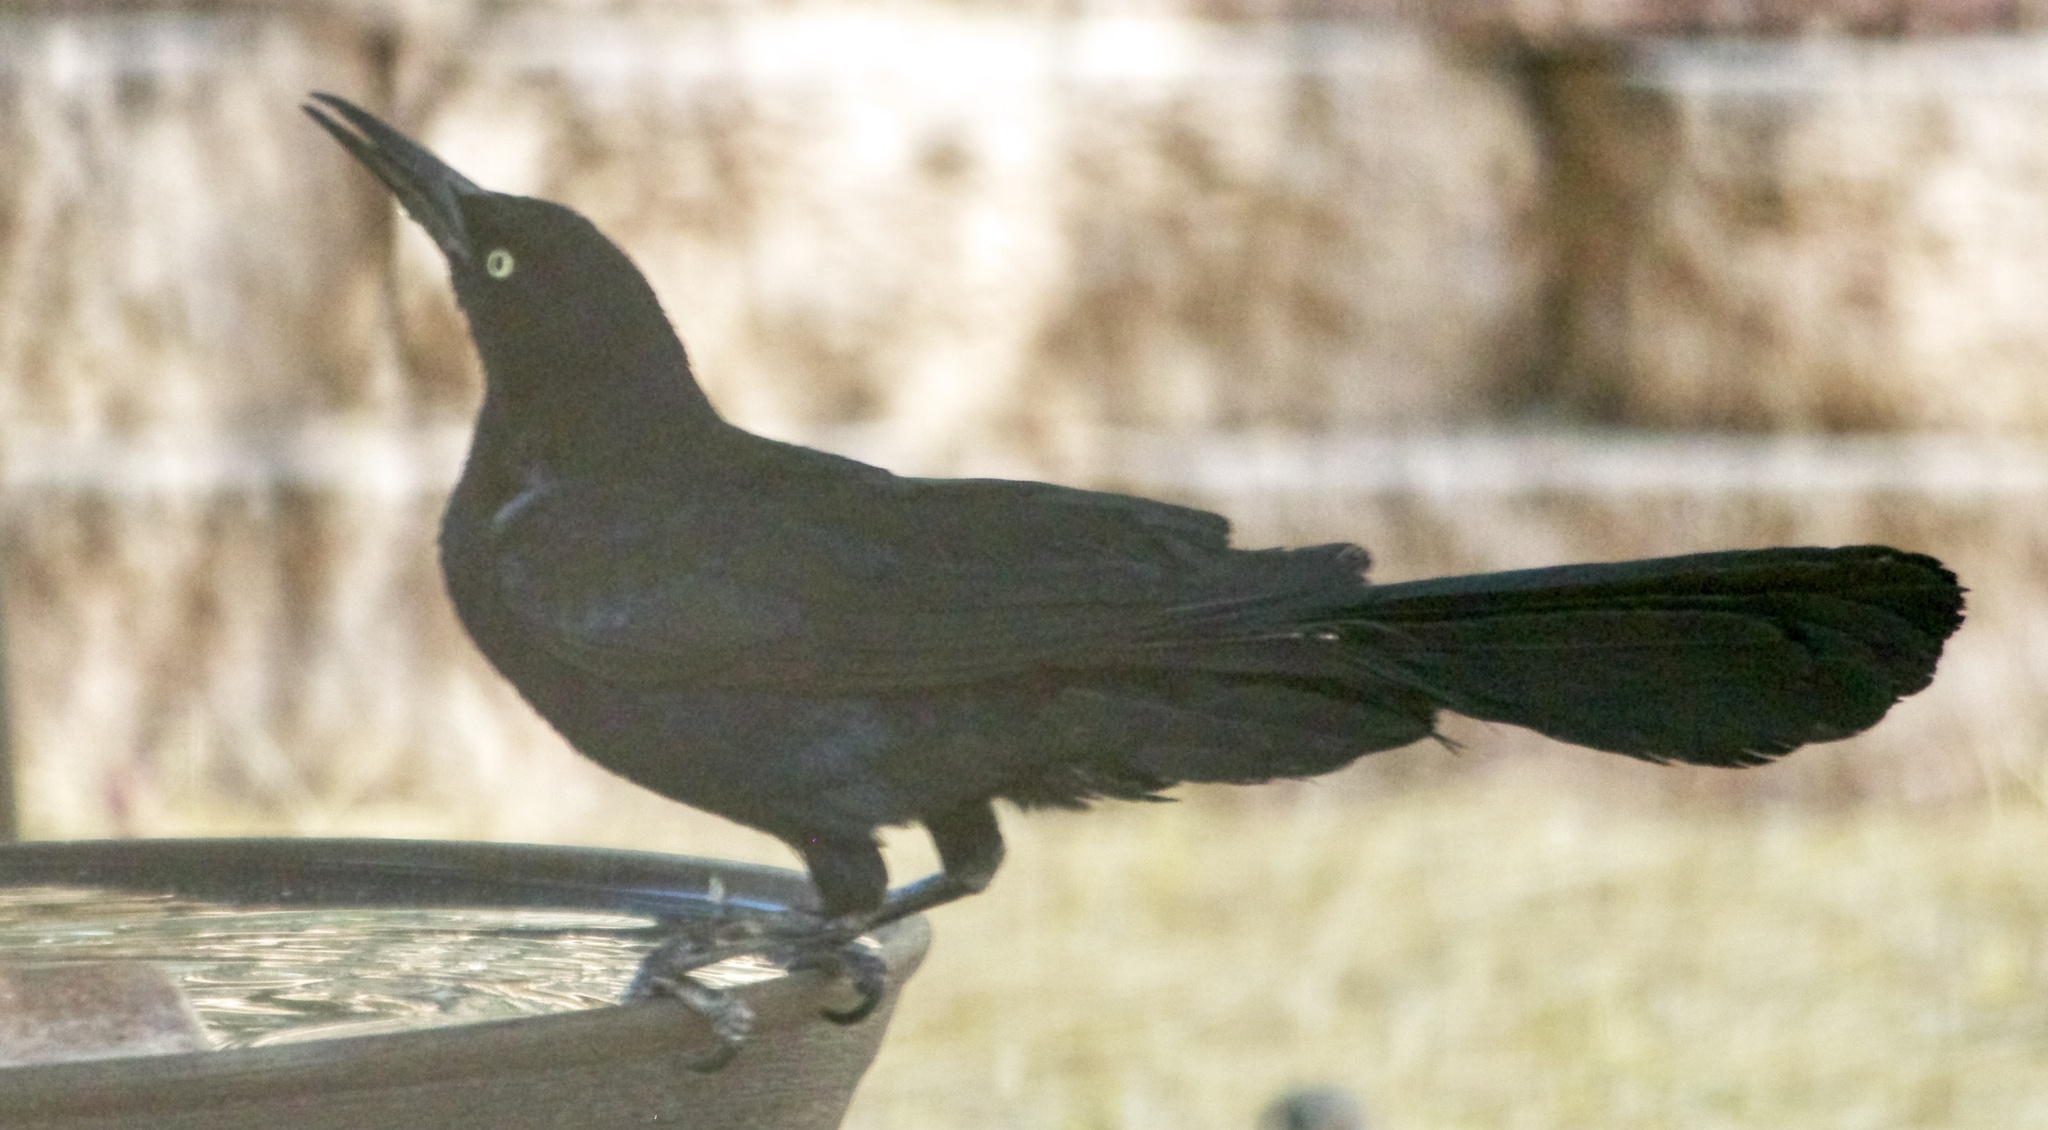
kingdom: Animalia
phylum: Chordata
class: Aves
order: Passeriformes
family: Icteridae
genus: Quiscalus
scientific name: Quiscalus mexicanus
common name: Great-tailed grackle
